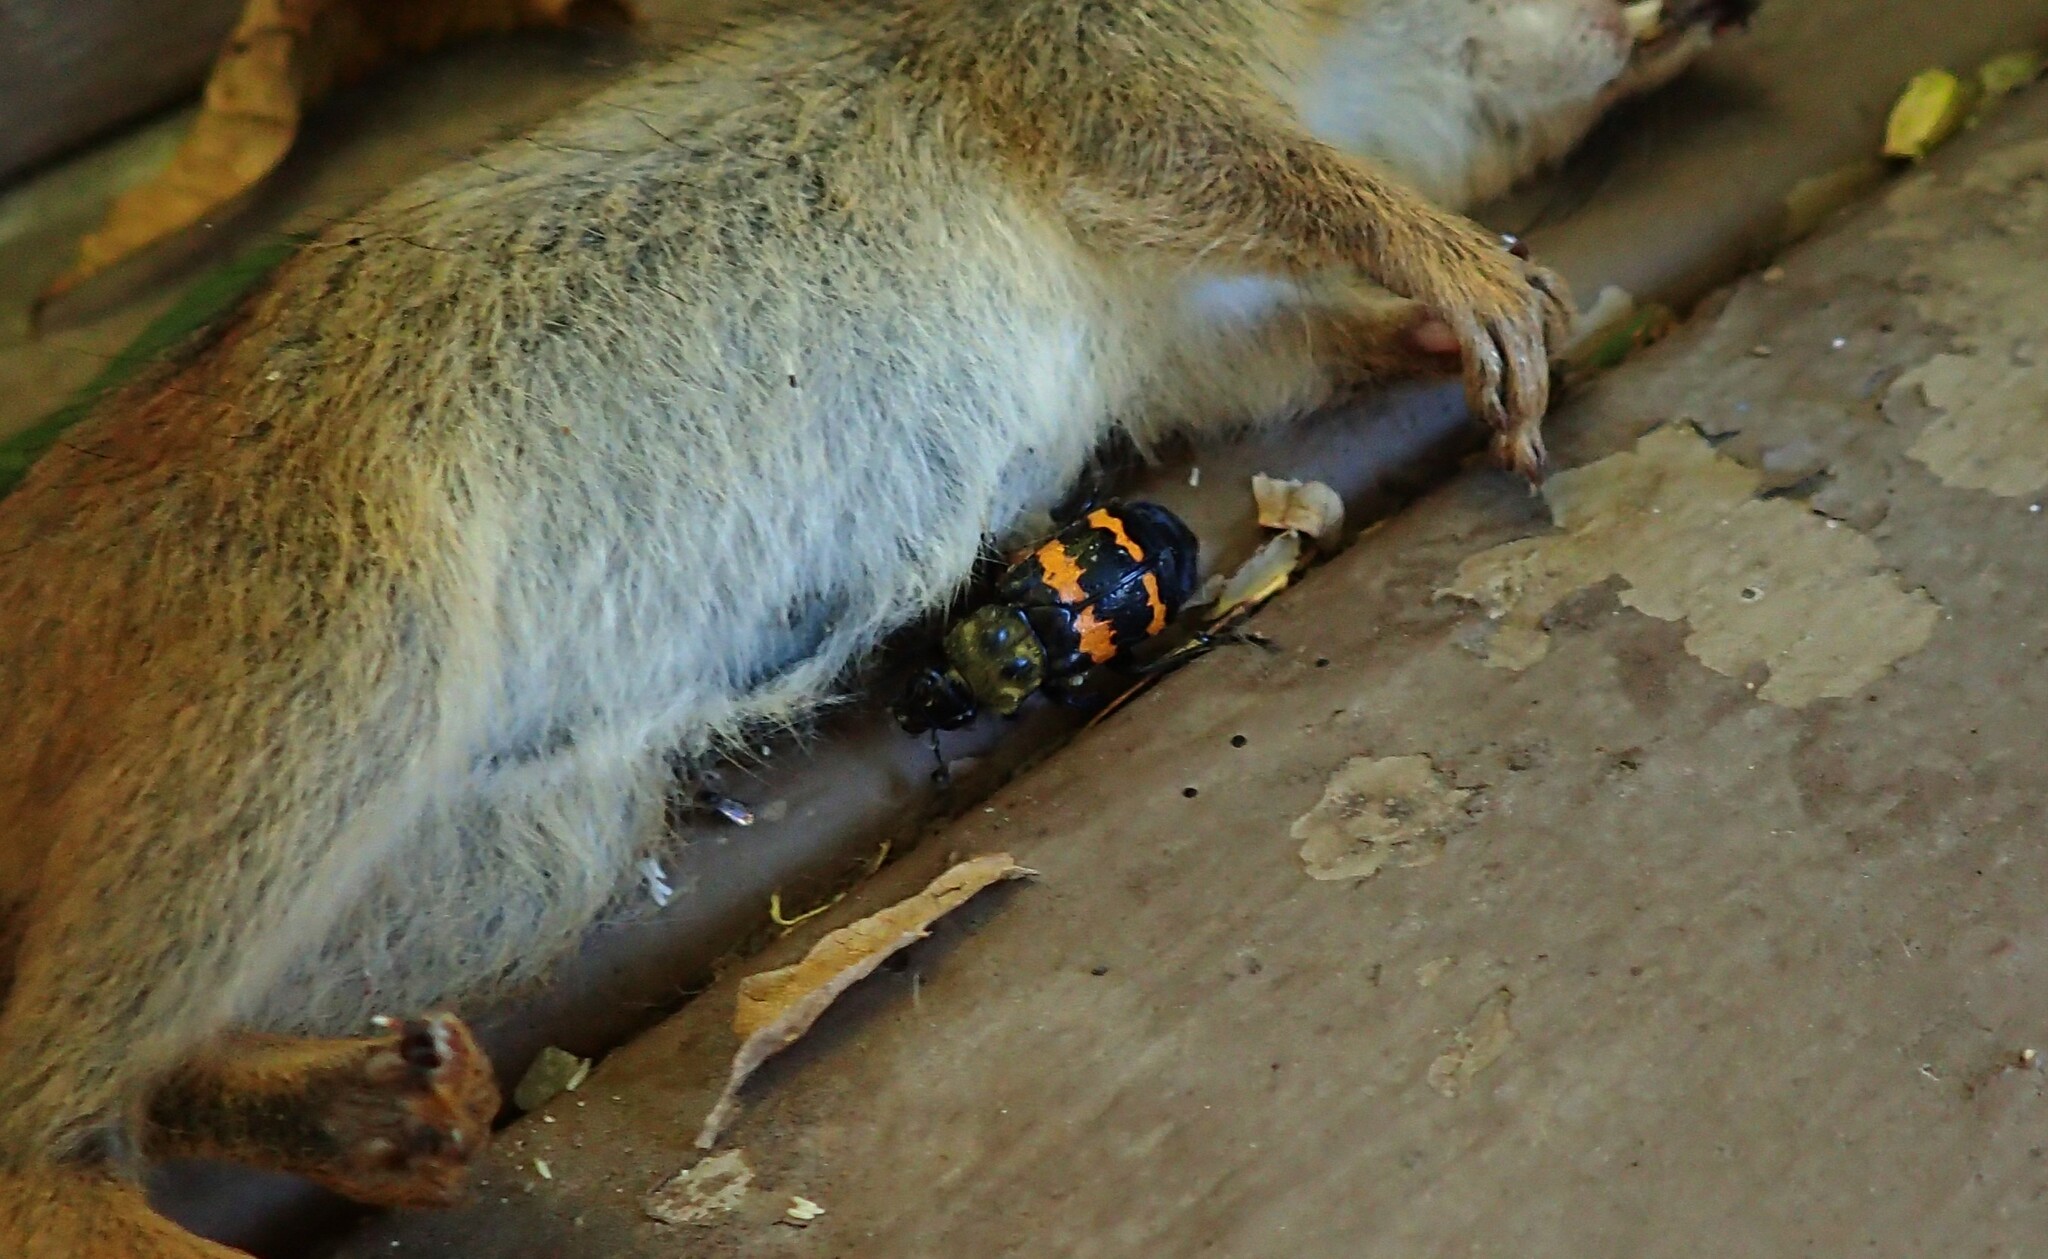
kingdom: Animalia
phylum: Arthropoda
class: Insecta
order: Coleoptera
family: Staphylinidae
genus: Nicrophorus
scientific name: Nicrophorus tomentosus
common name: Tomentose burying beetle
